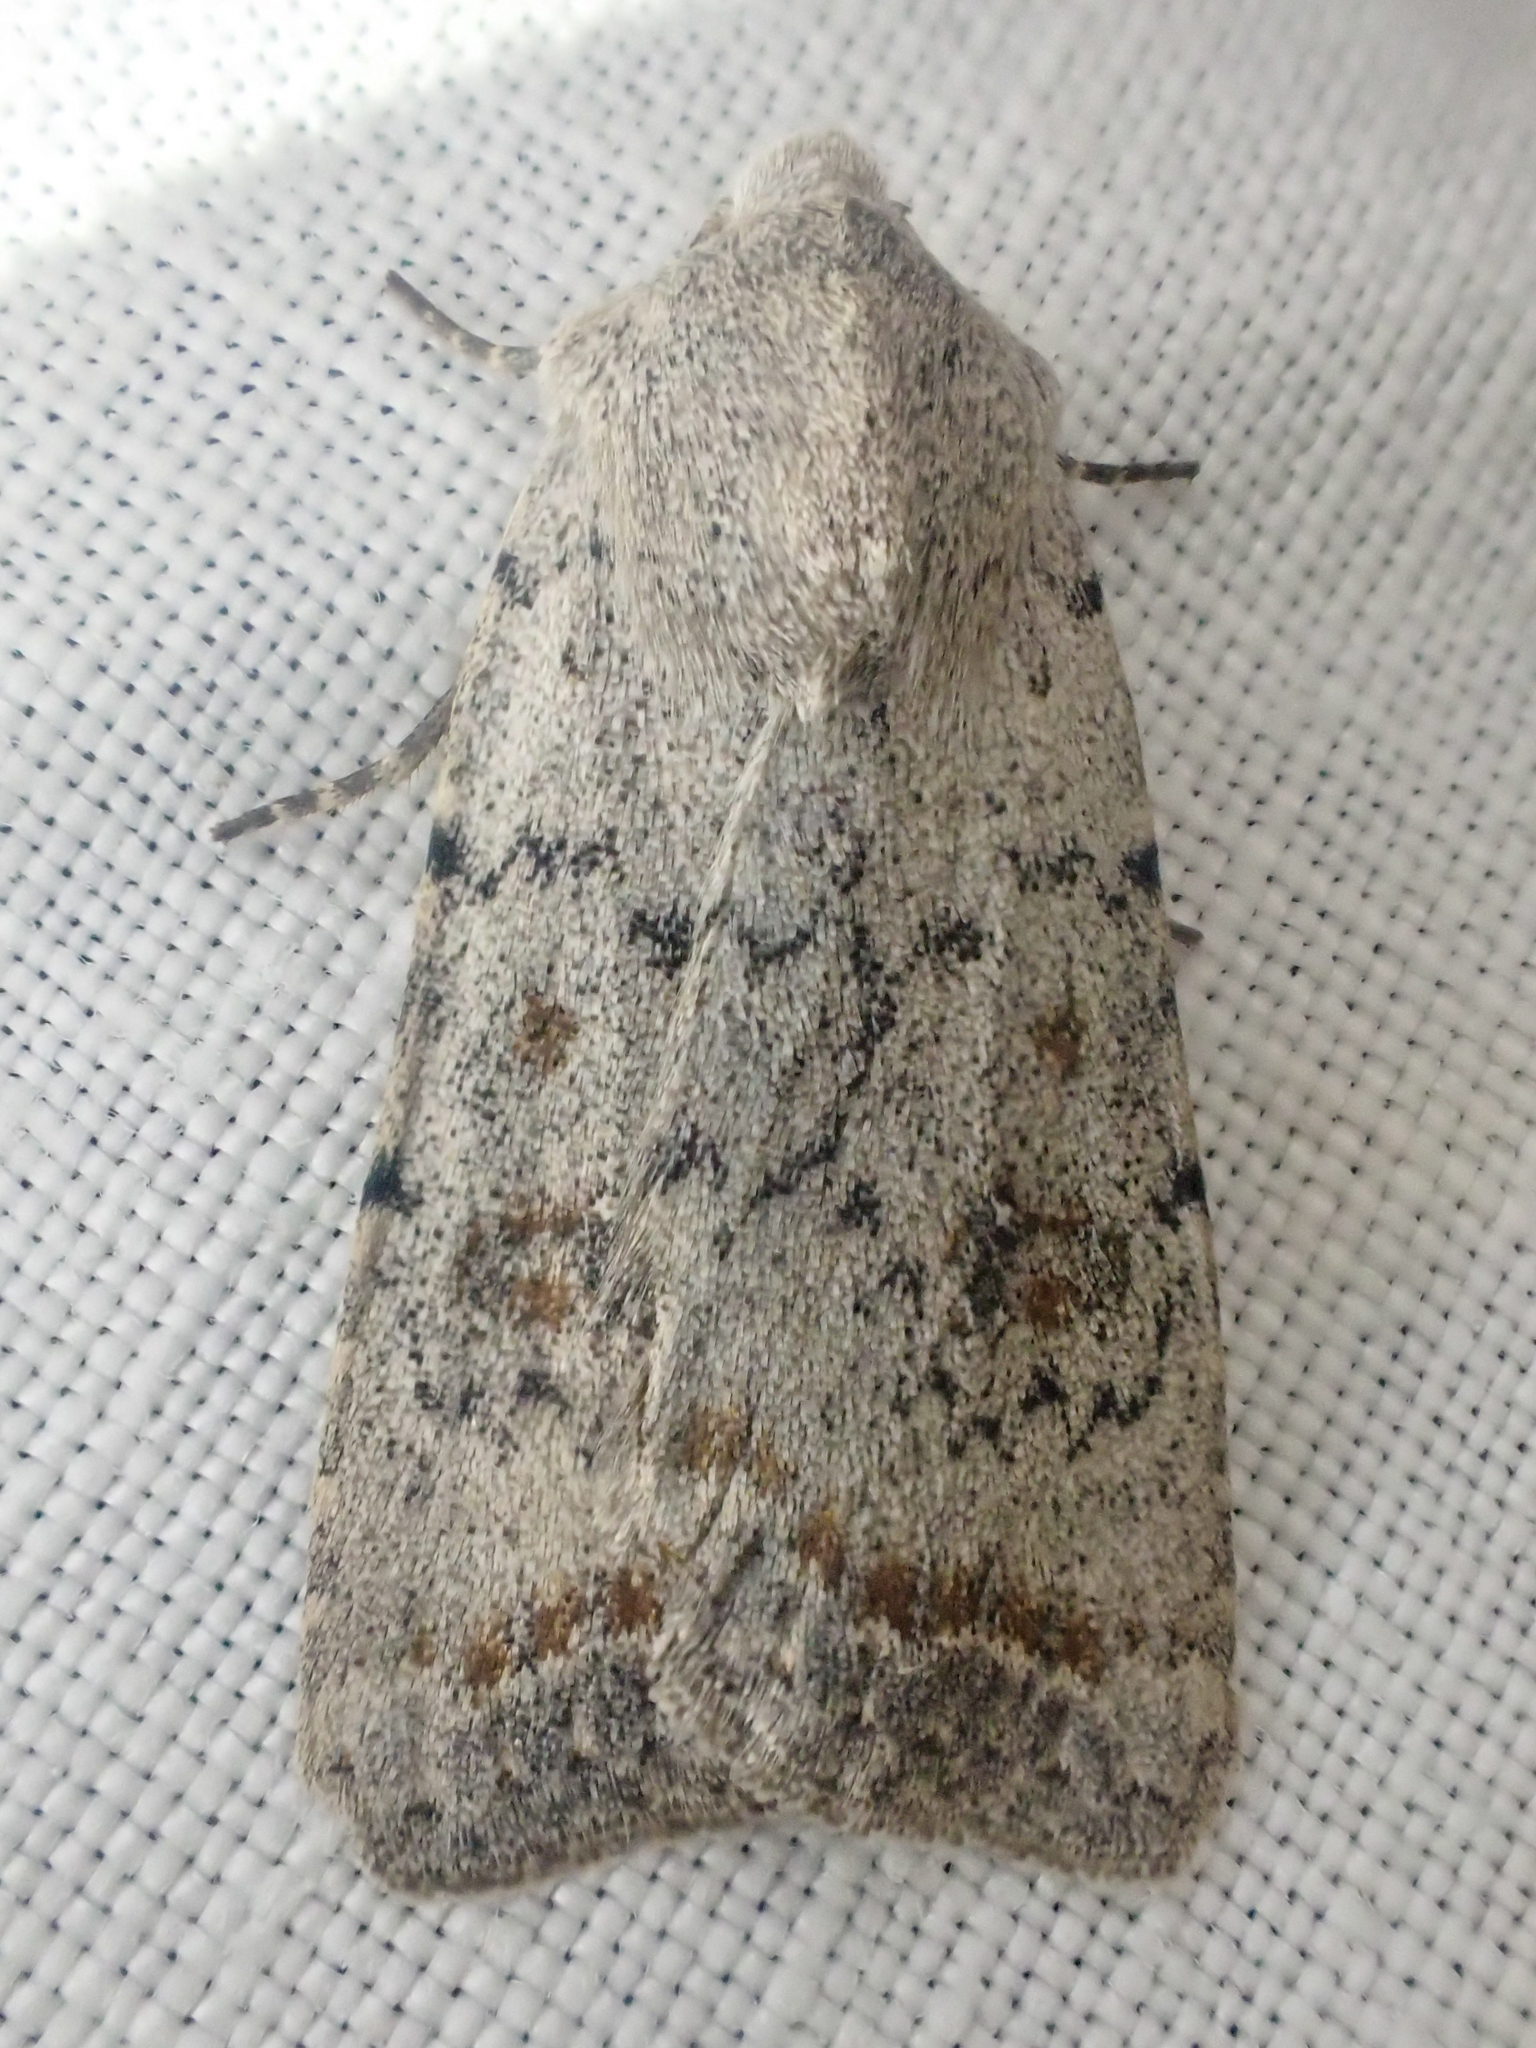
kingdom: Animalia
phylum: Arthropoda
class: Insecta
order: Lepidoptera
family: Noctuidae
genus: Caradrina
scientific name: Caradrina montana
